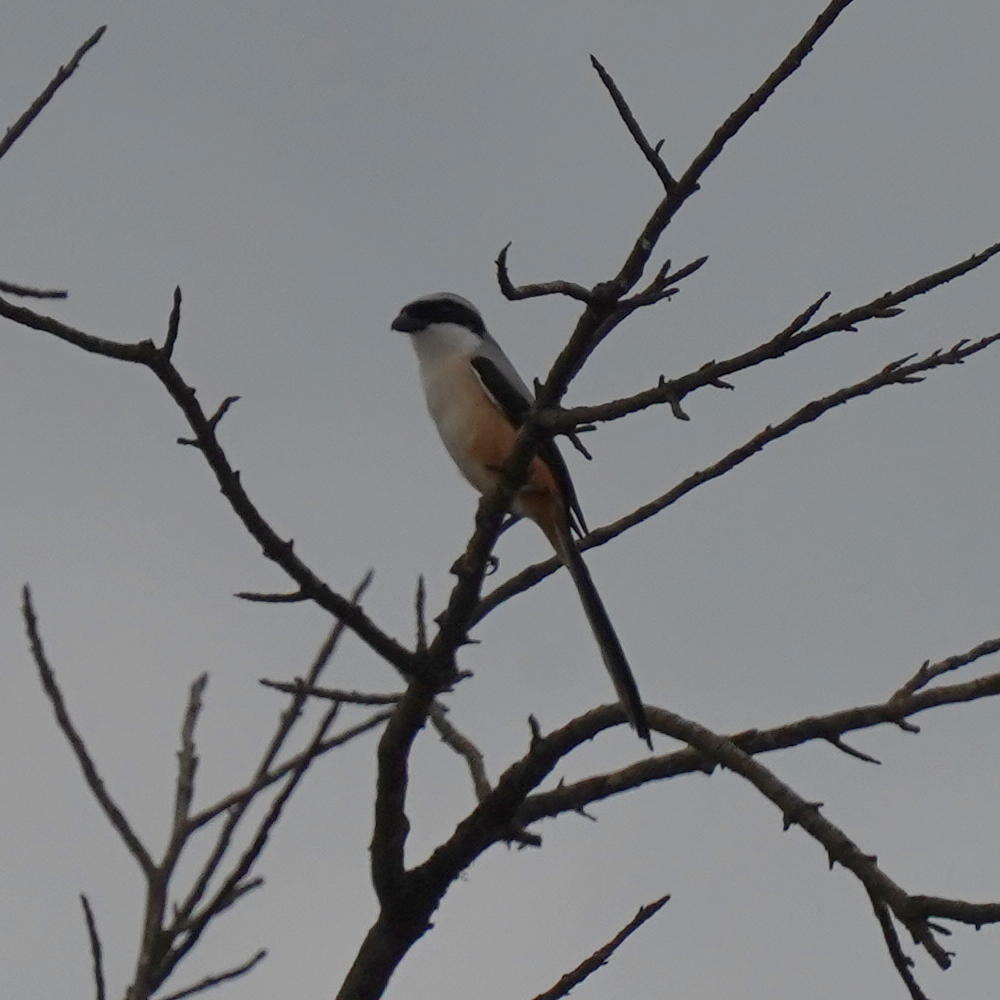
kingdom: Animalia
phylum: Chordata
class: Aves
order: Passeriformes
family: Laniidae
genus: Lanius
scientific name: Lanius schach
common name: Long-tailed shrike
